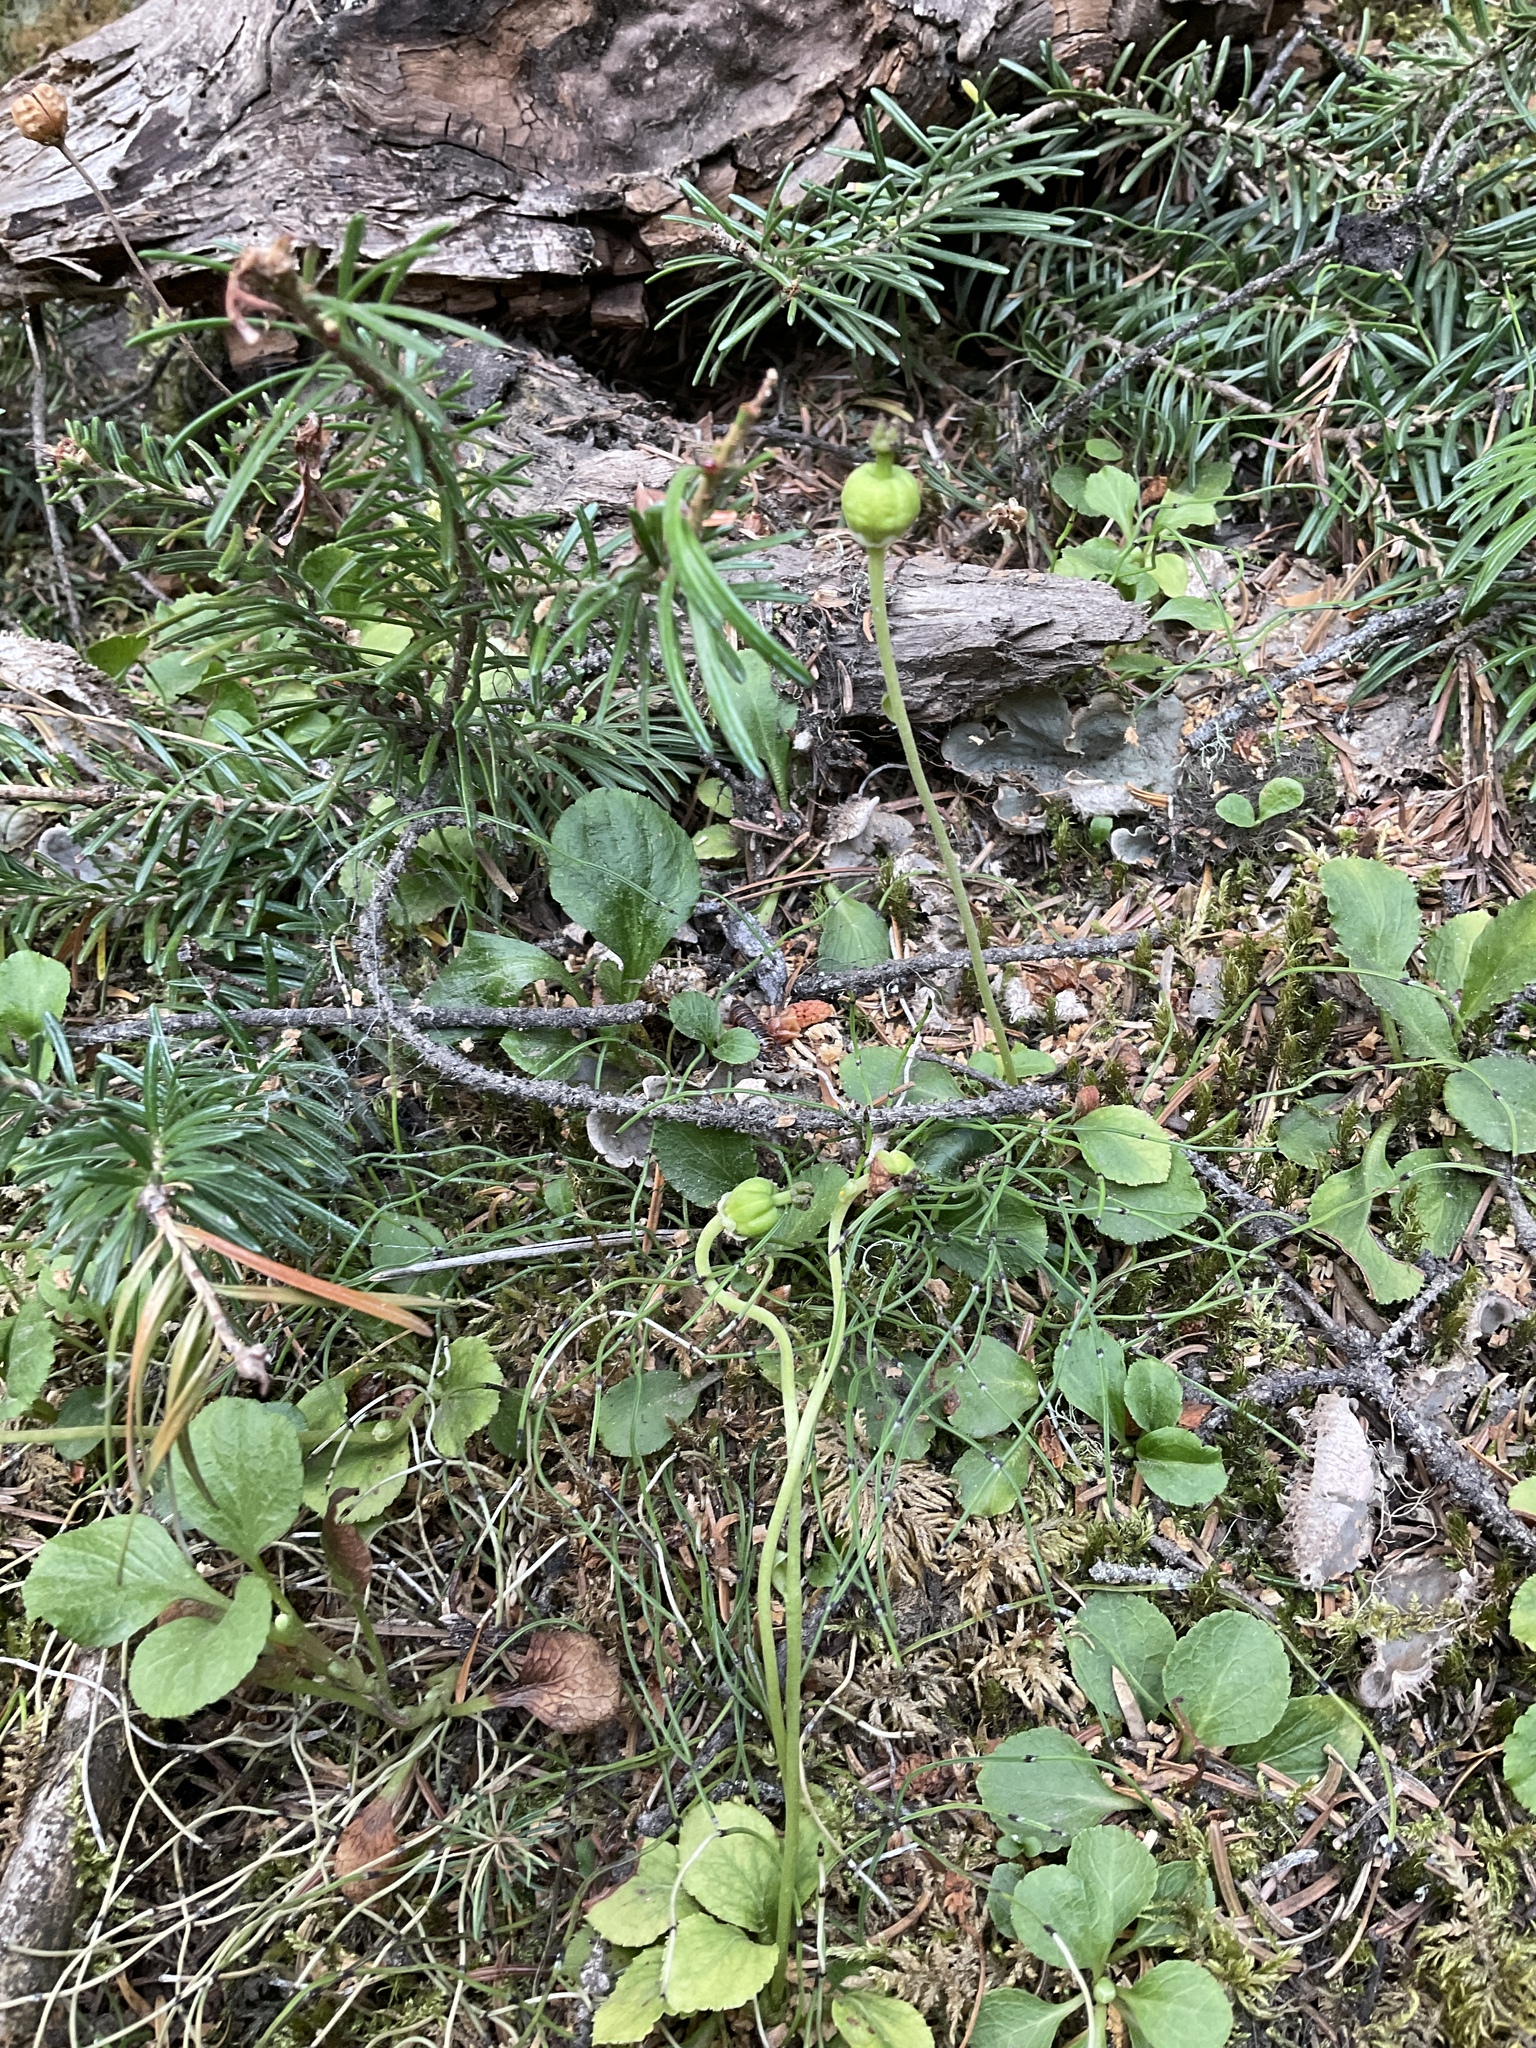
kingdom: Plantae
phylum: Tracheophyta
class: Magnoliopsida
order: Ericales
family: Ericaceae
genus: Moneses
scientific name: Moneses uniflora
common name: One-flowered wintergreen
